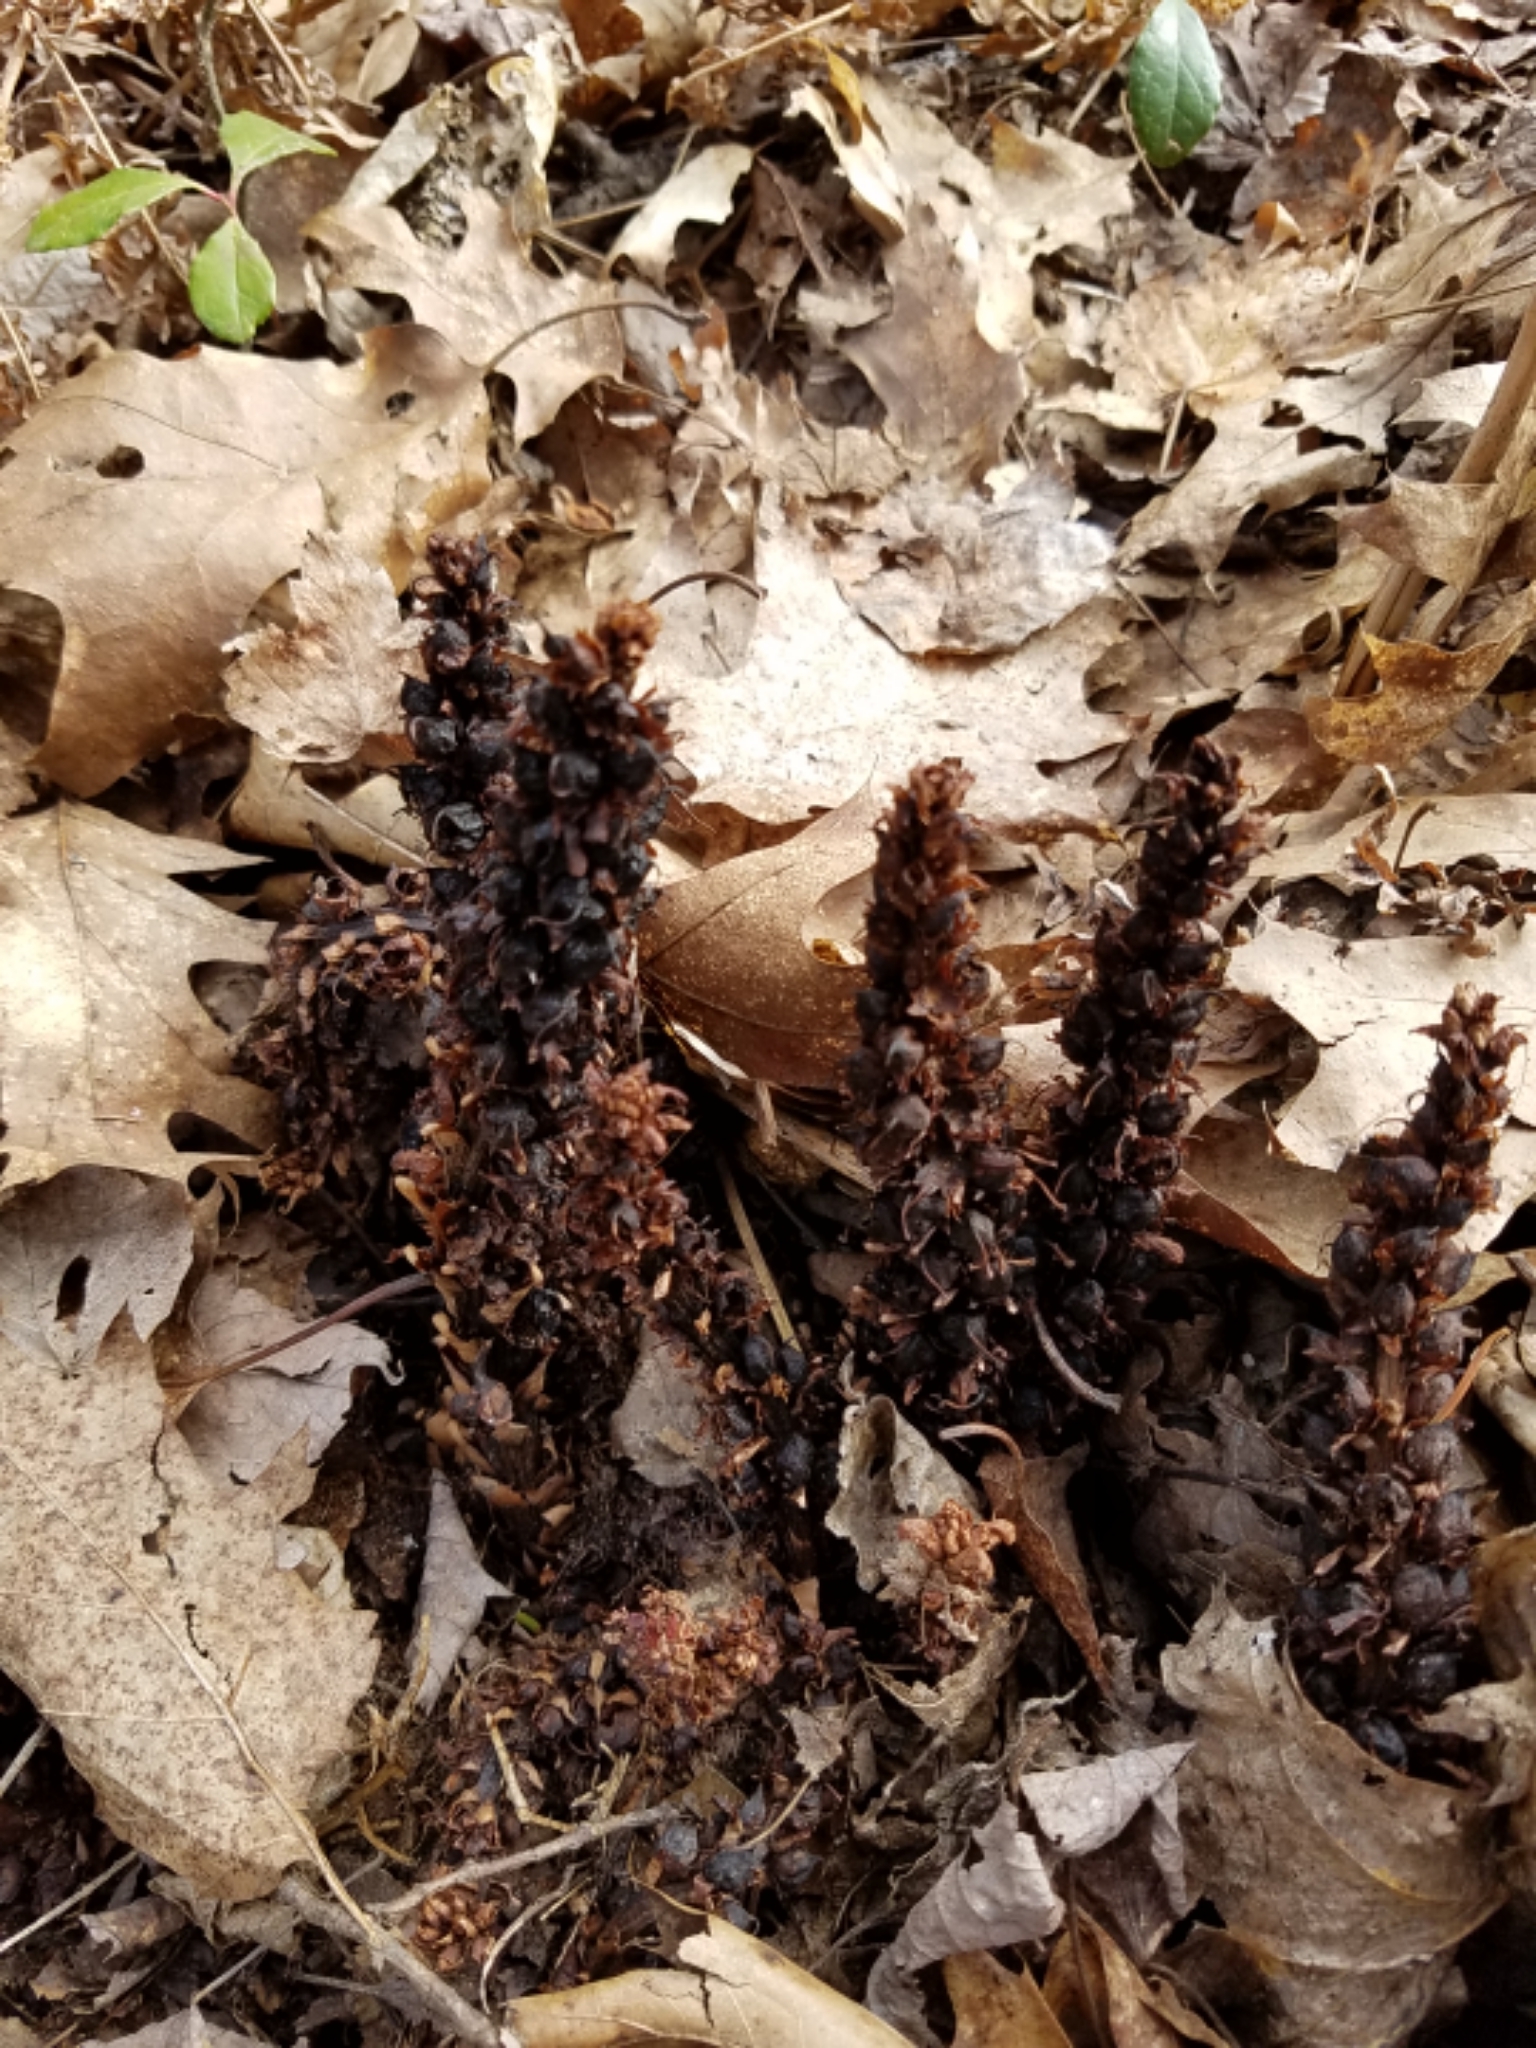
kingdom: Plantae
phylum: Tracheophyta
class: Magnoliopsida
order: Lamiales
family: Orobanchaceae
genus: Conopholis
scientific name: Conopholis americana
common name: American cancer-root
